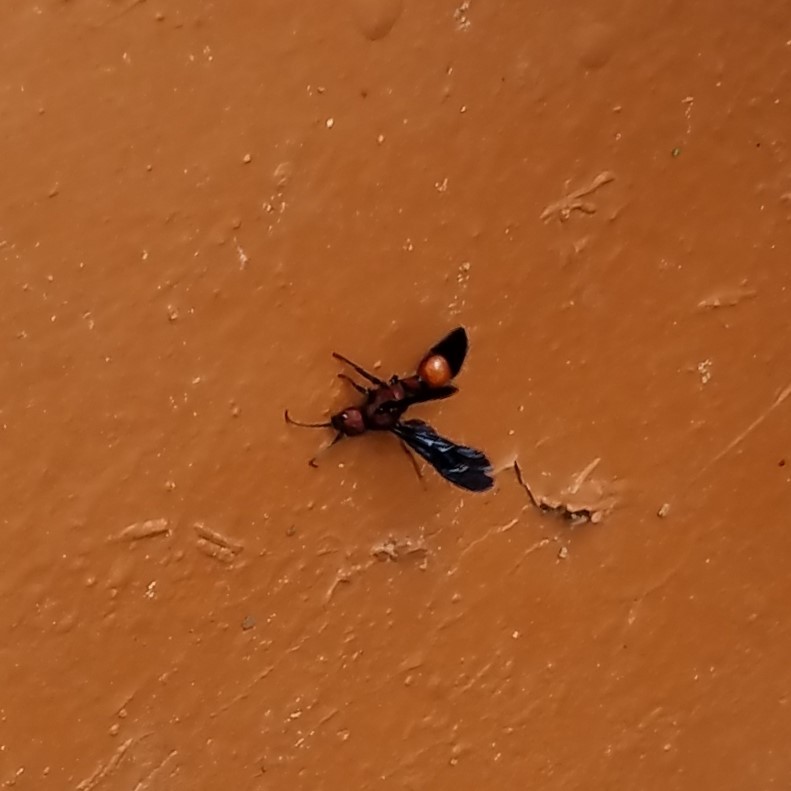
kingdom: Animalia
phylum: Arthropoda
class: Insecta
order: Hymenoptera
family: Mutillidae
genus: Sphaeropthalma
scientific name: Sphaeropthalma
